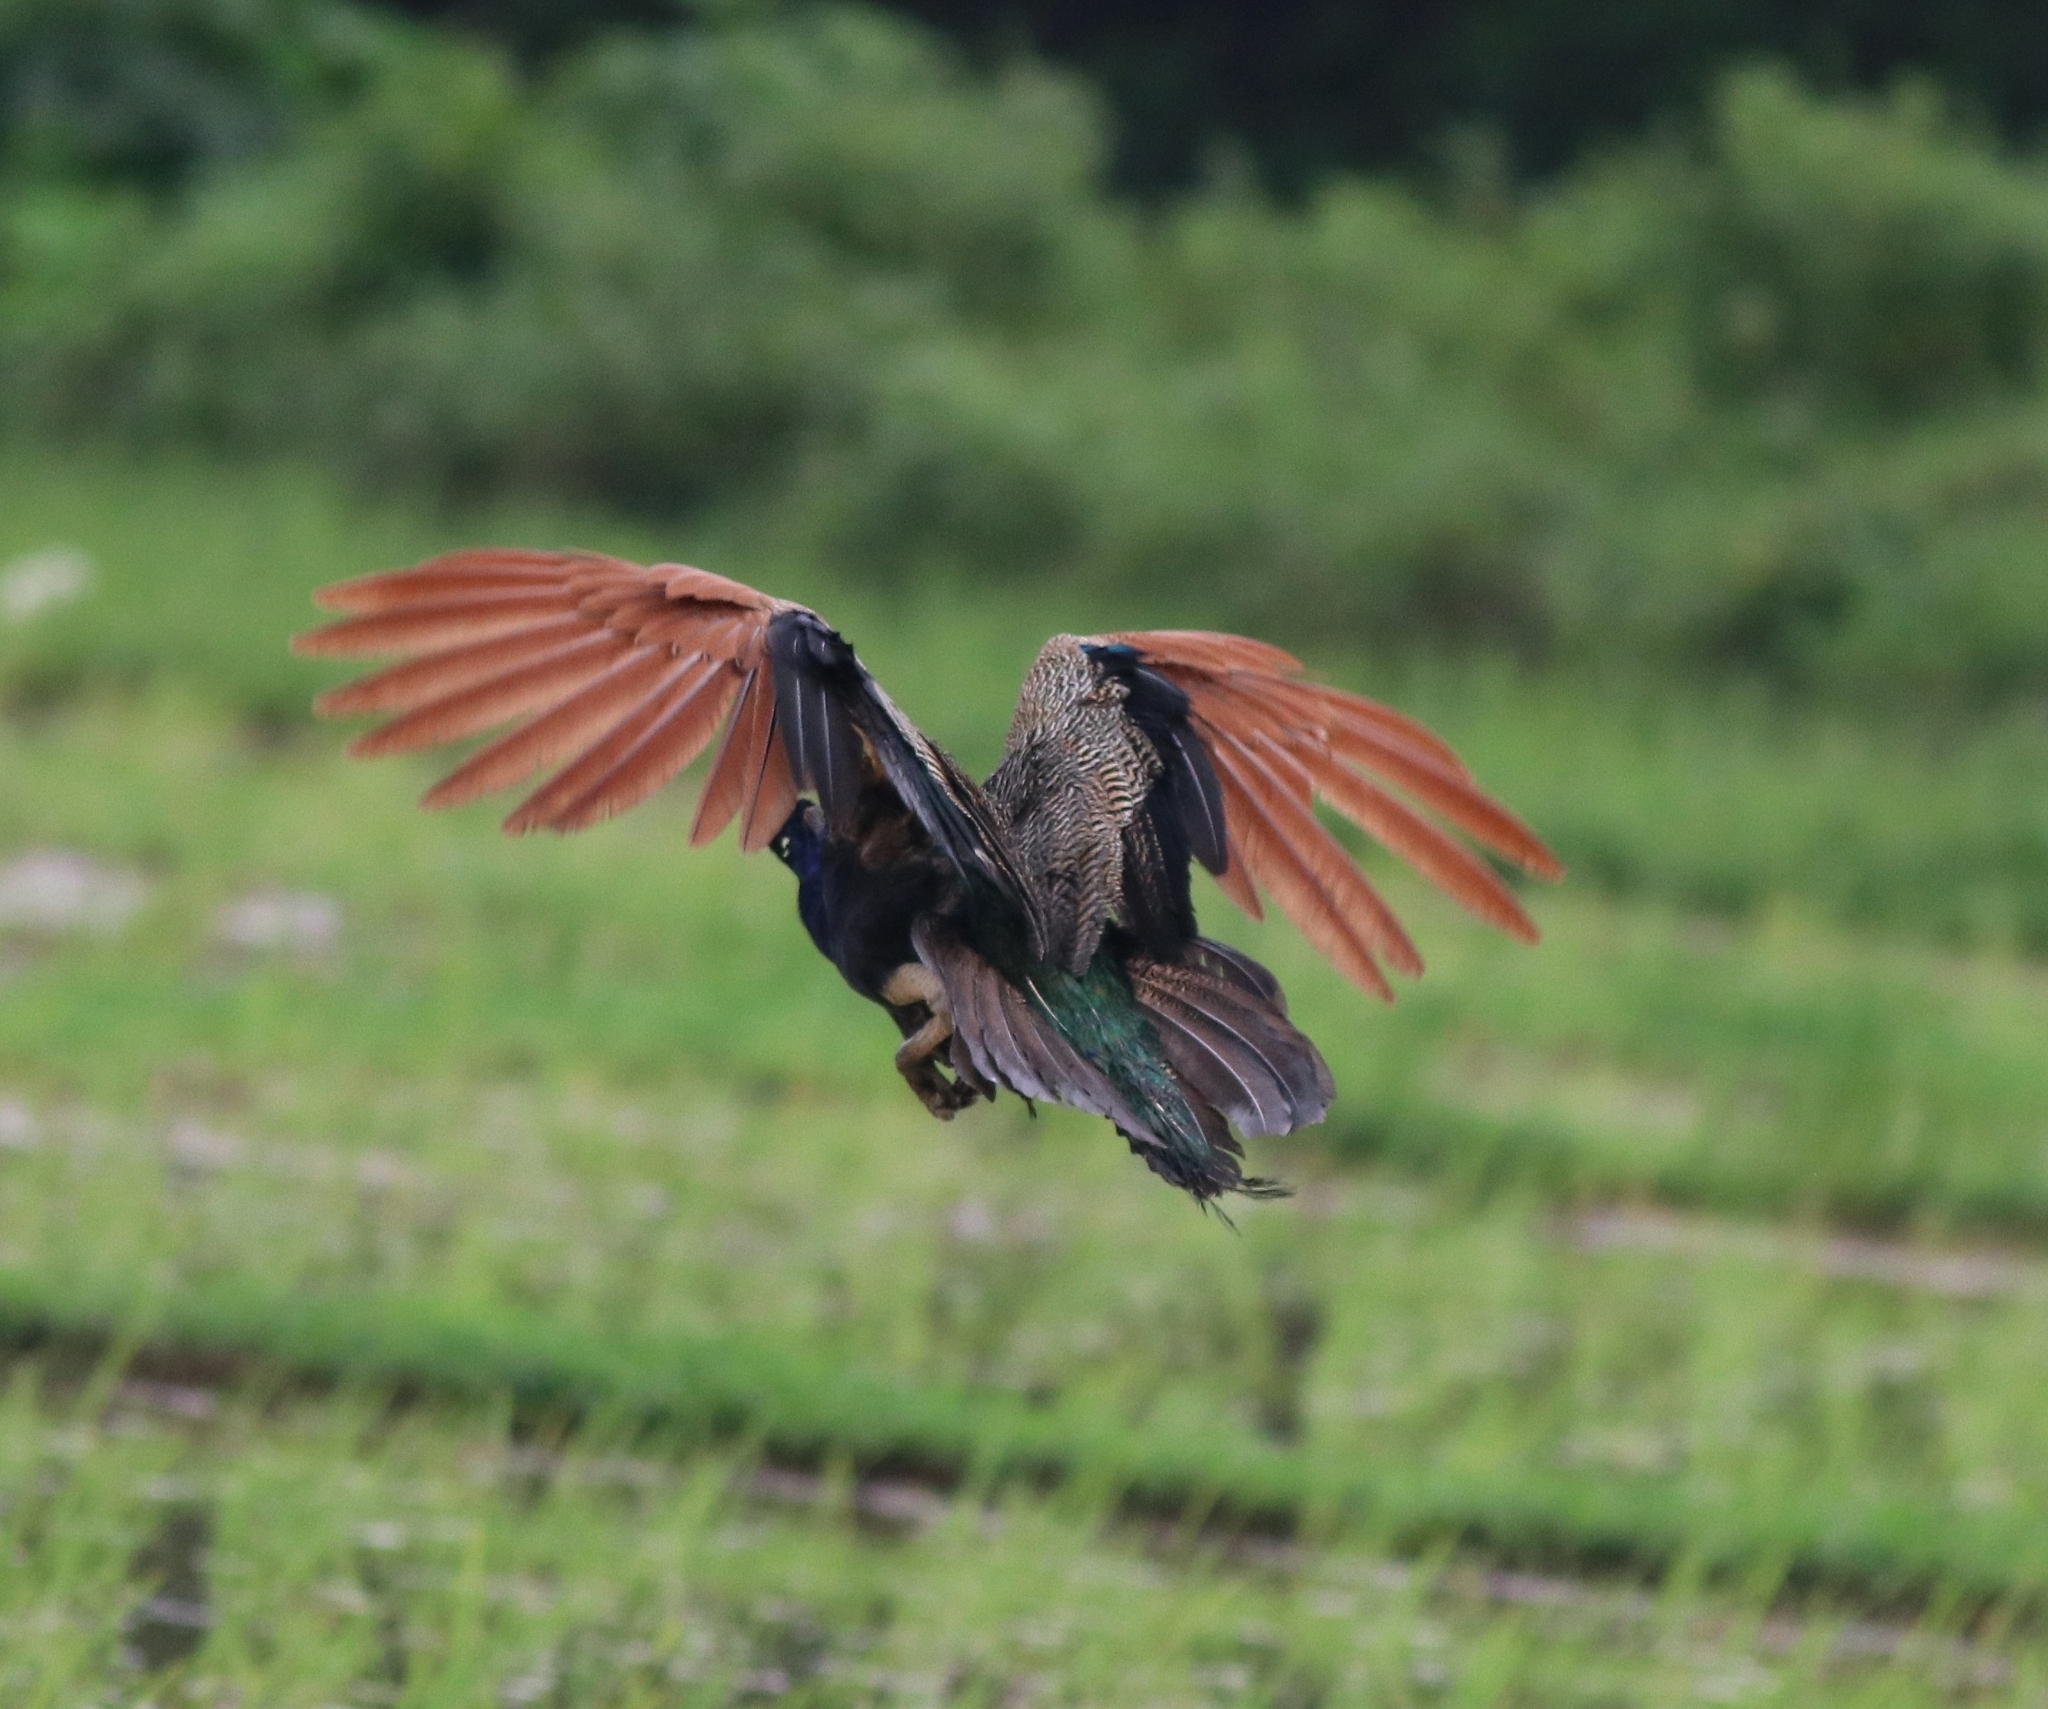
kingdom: Animalia
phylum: Chordata
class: Aves
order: Galliformes
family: Phasianidae
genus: Pavo
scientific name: Pavo cristatus
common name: Indian peafowl
